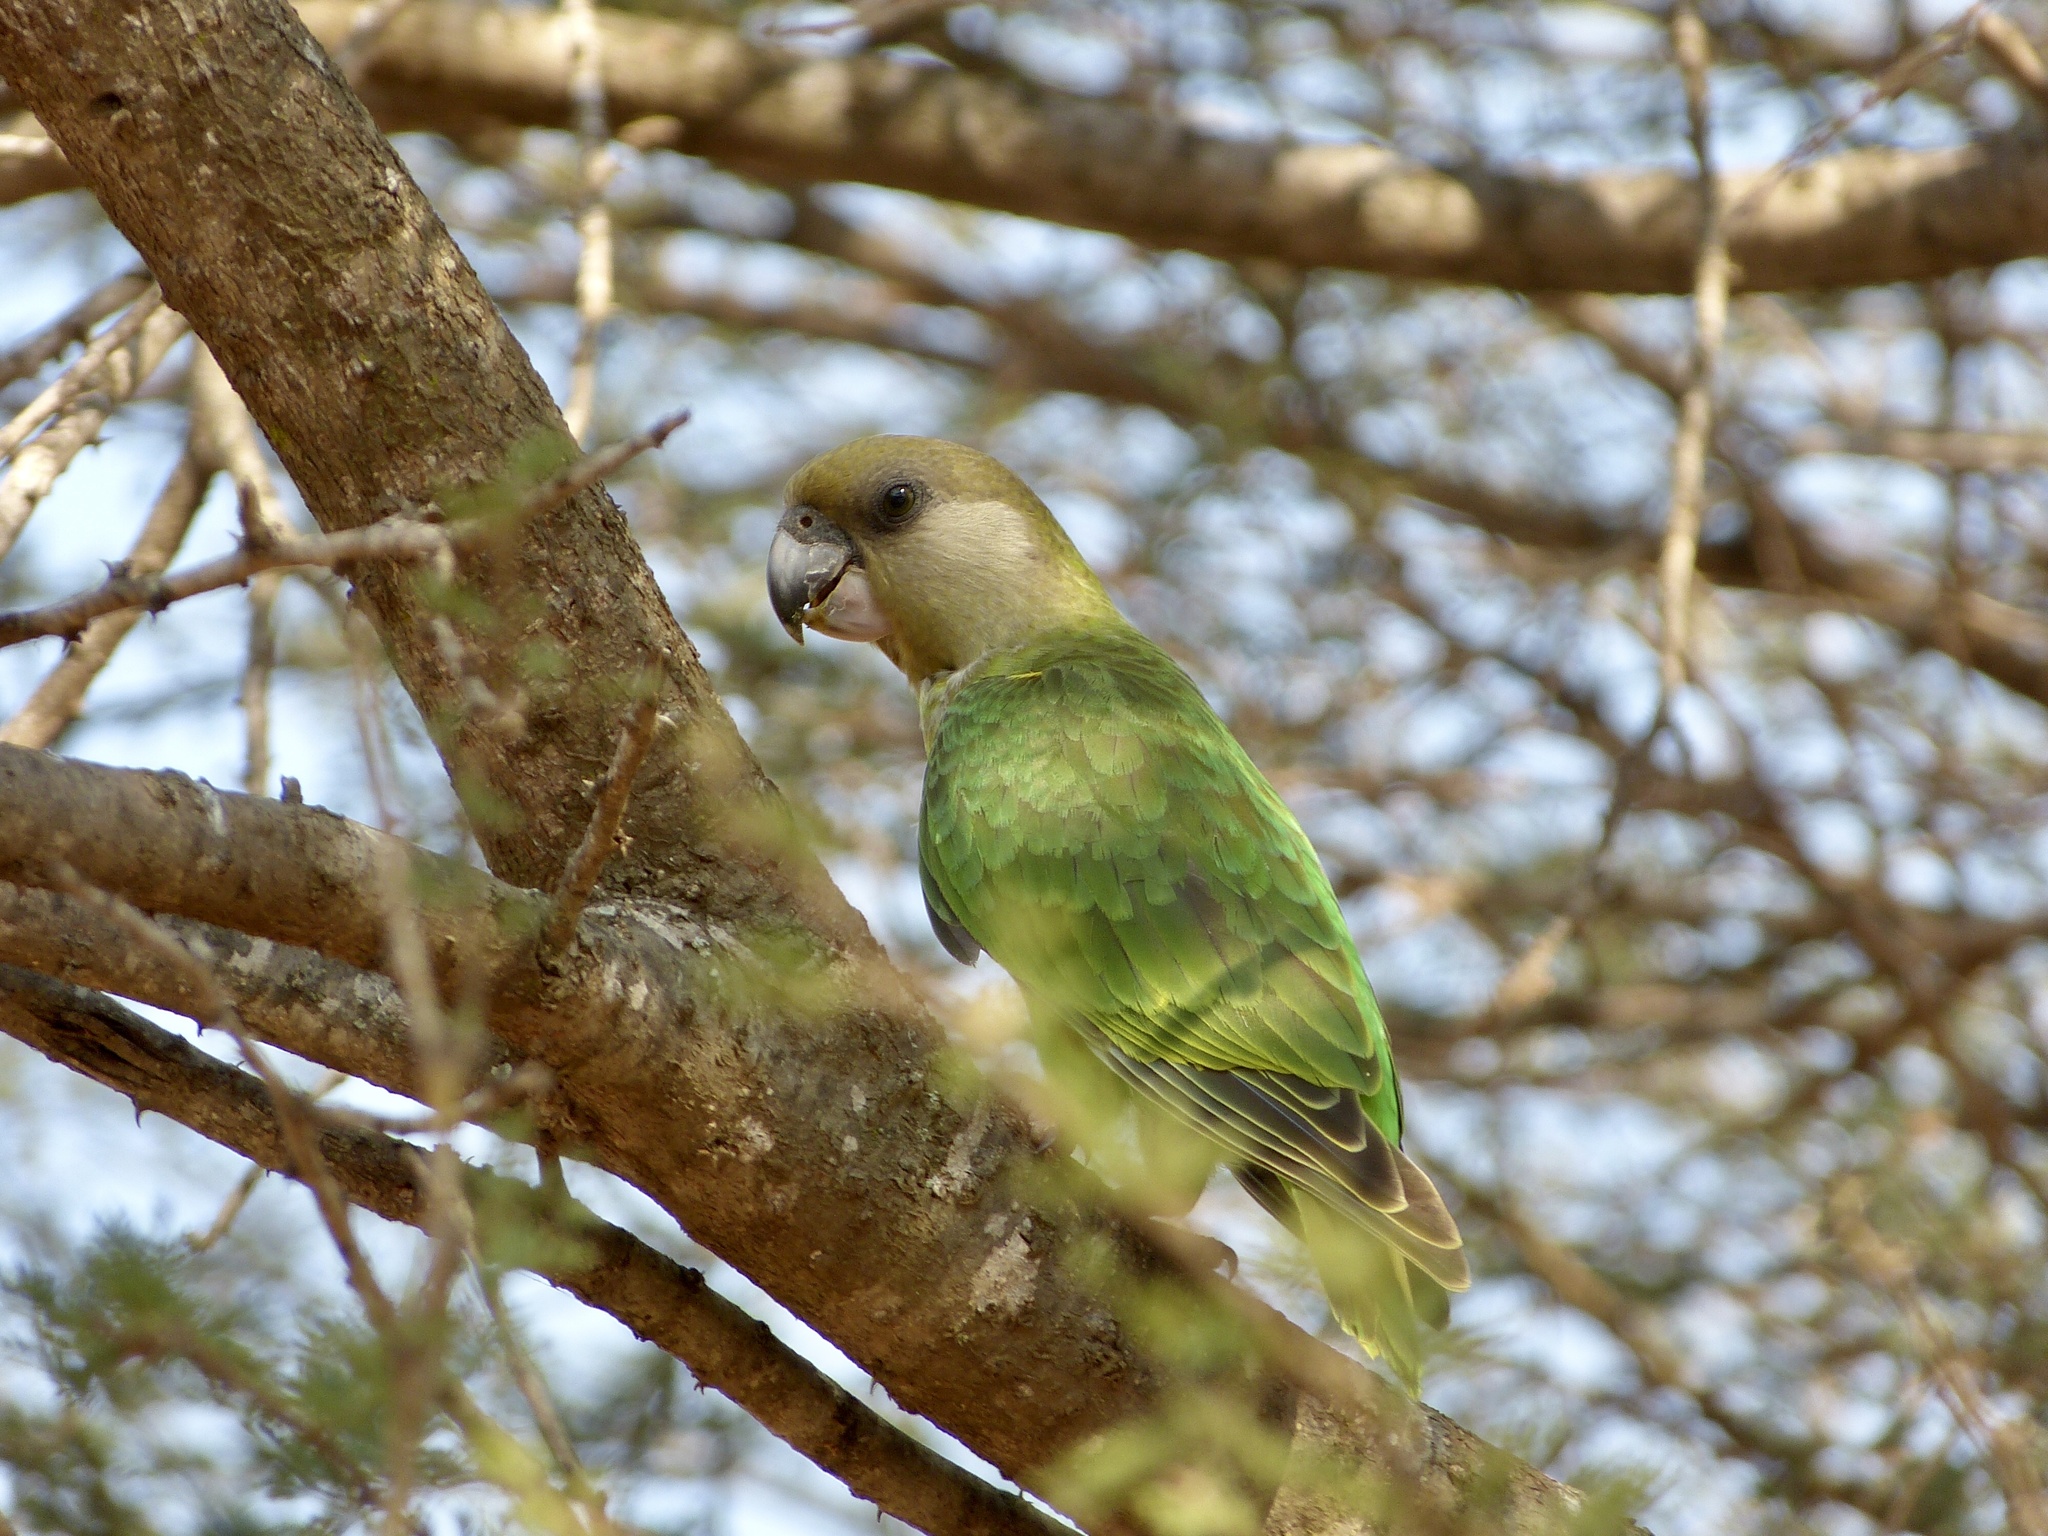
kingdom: Animalia
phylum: Chordata
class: Aves
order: Psittaciformes
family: Psittacidae
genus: Poicephalus
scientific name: Poicephalus cryptoxanthus
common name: Brown-headed parrot
